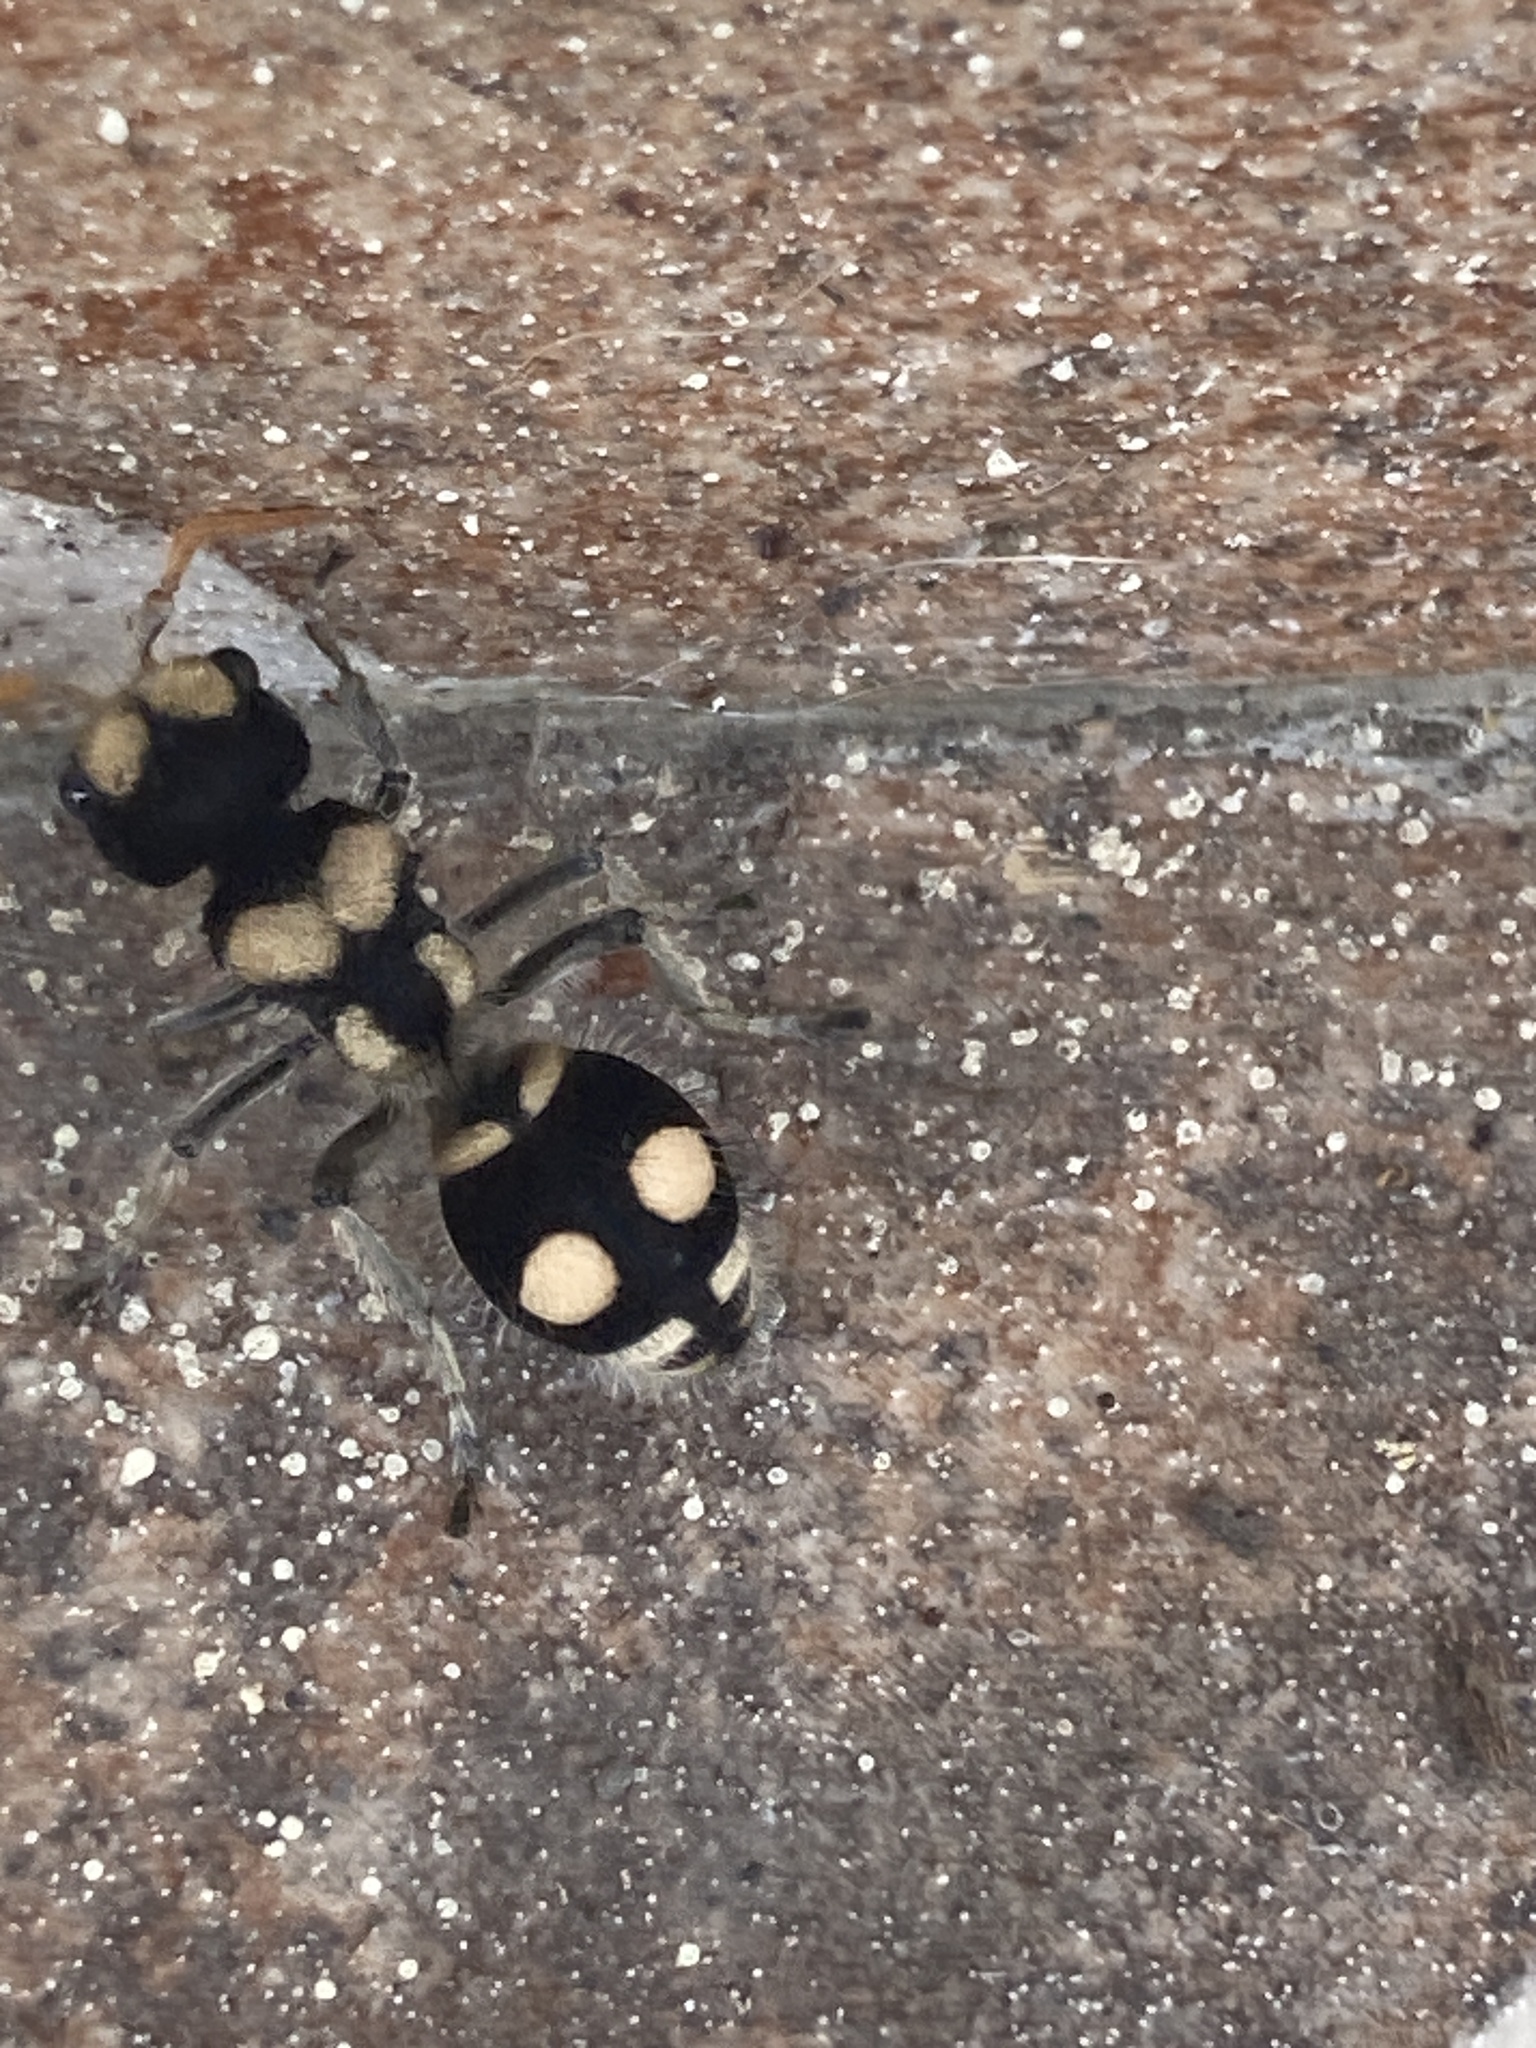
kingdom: Animalia
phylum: Arthropoda
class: Insecta
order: Hymenoptera
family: Mutillidae
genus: Hoplomutilla
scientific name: Hoplomutilla
